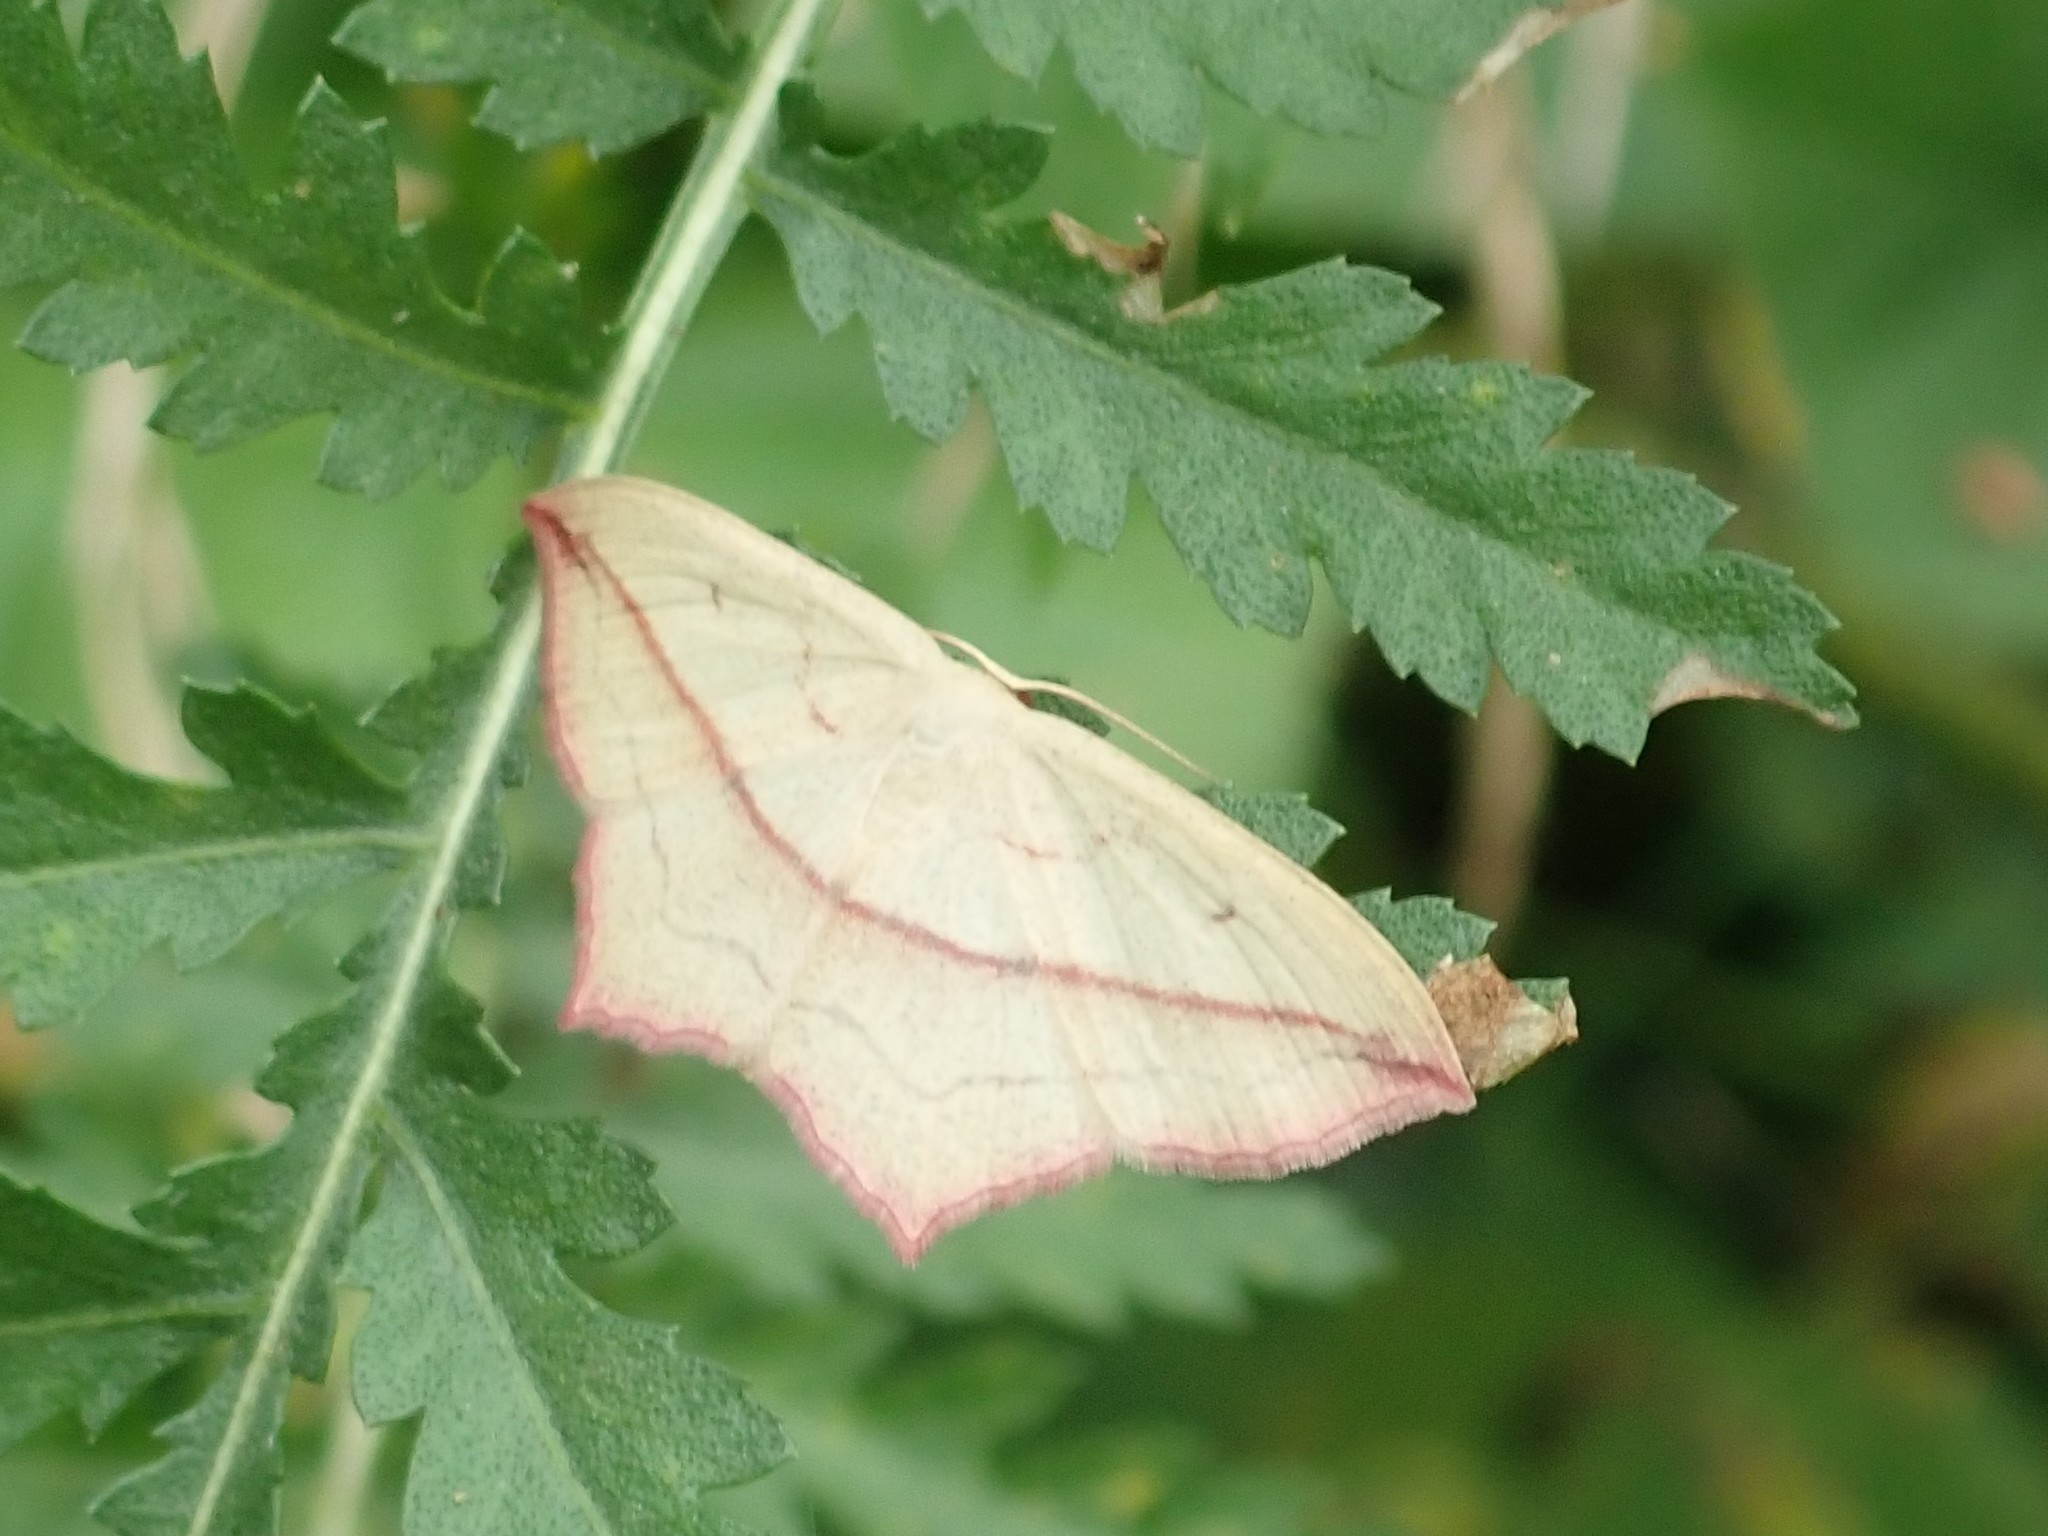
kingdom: Animalia
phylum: Arthropoda
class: Insecta
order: Lepidoptera
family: Geometridae
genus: Timandra
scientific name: Timandra comae
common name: Blood-vein
